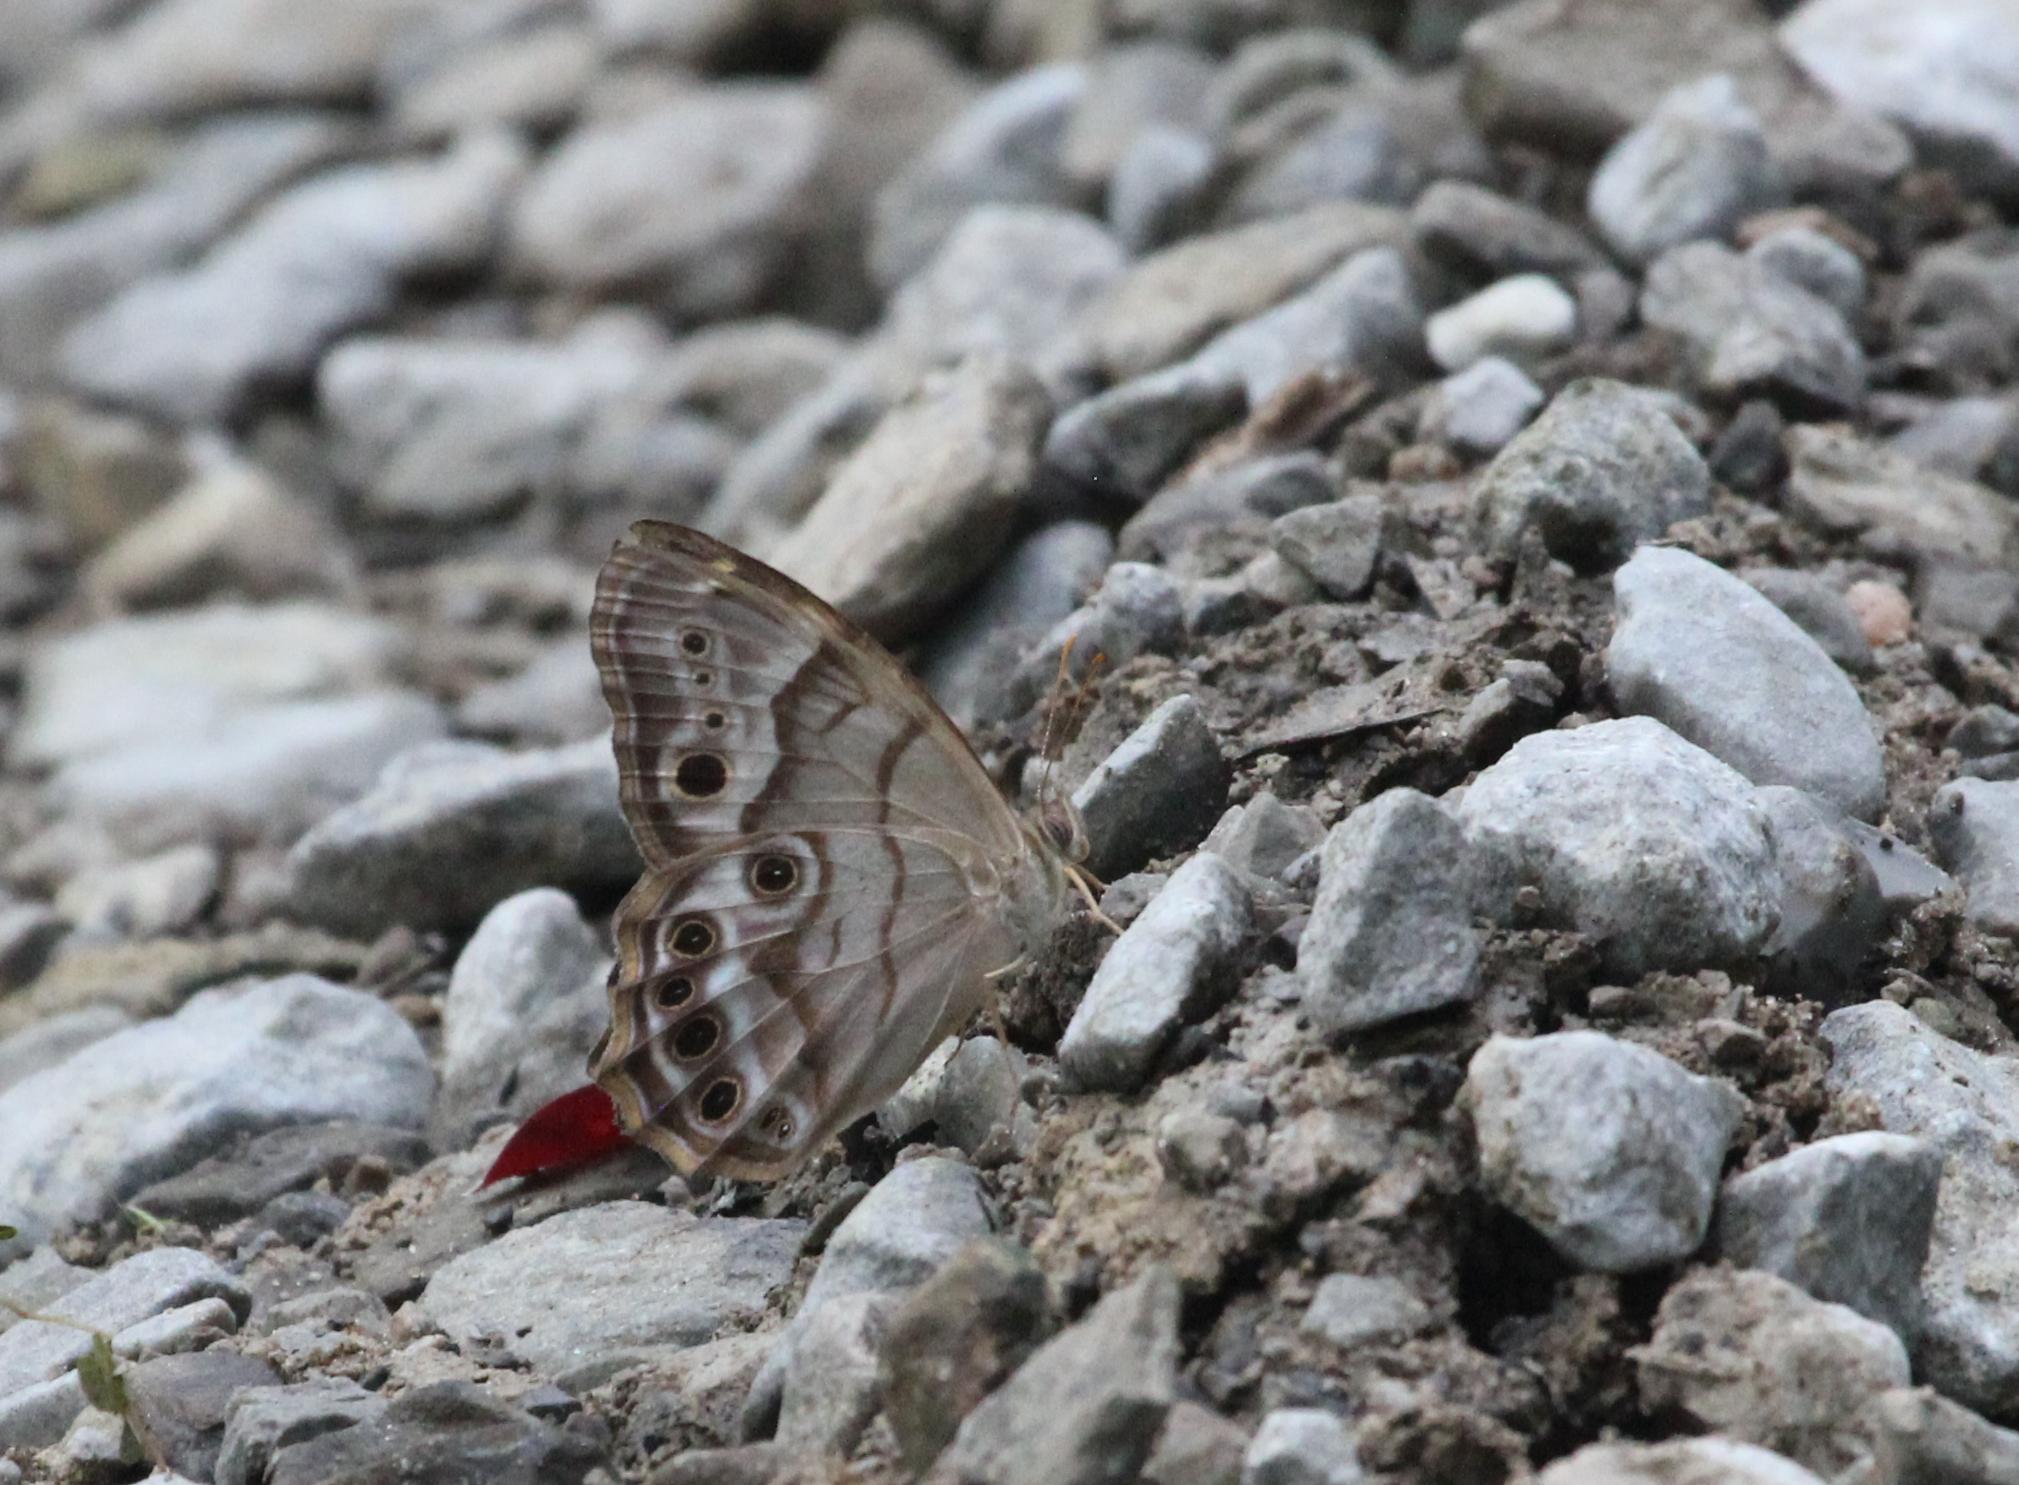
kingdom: Animalia
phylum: Arthropoda
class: Insecta
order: Lepidoptera
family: Nymphalidae
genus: Enodia
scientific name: Enodia portlandia
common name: Southern pearly-eye
